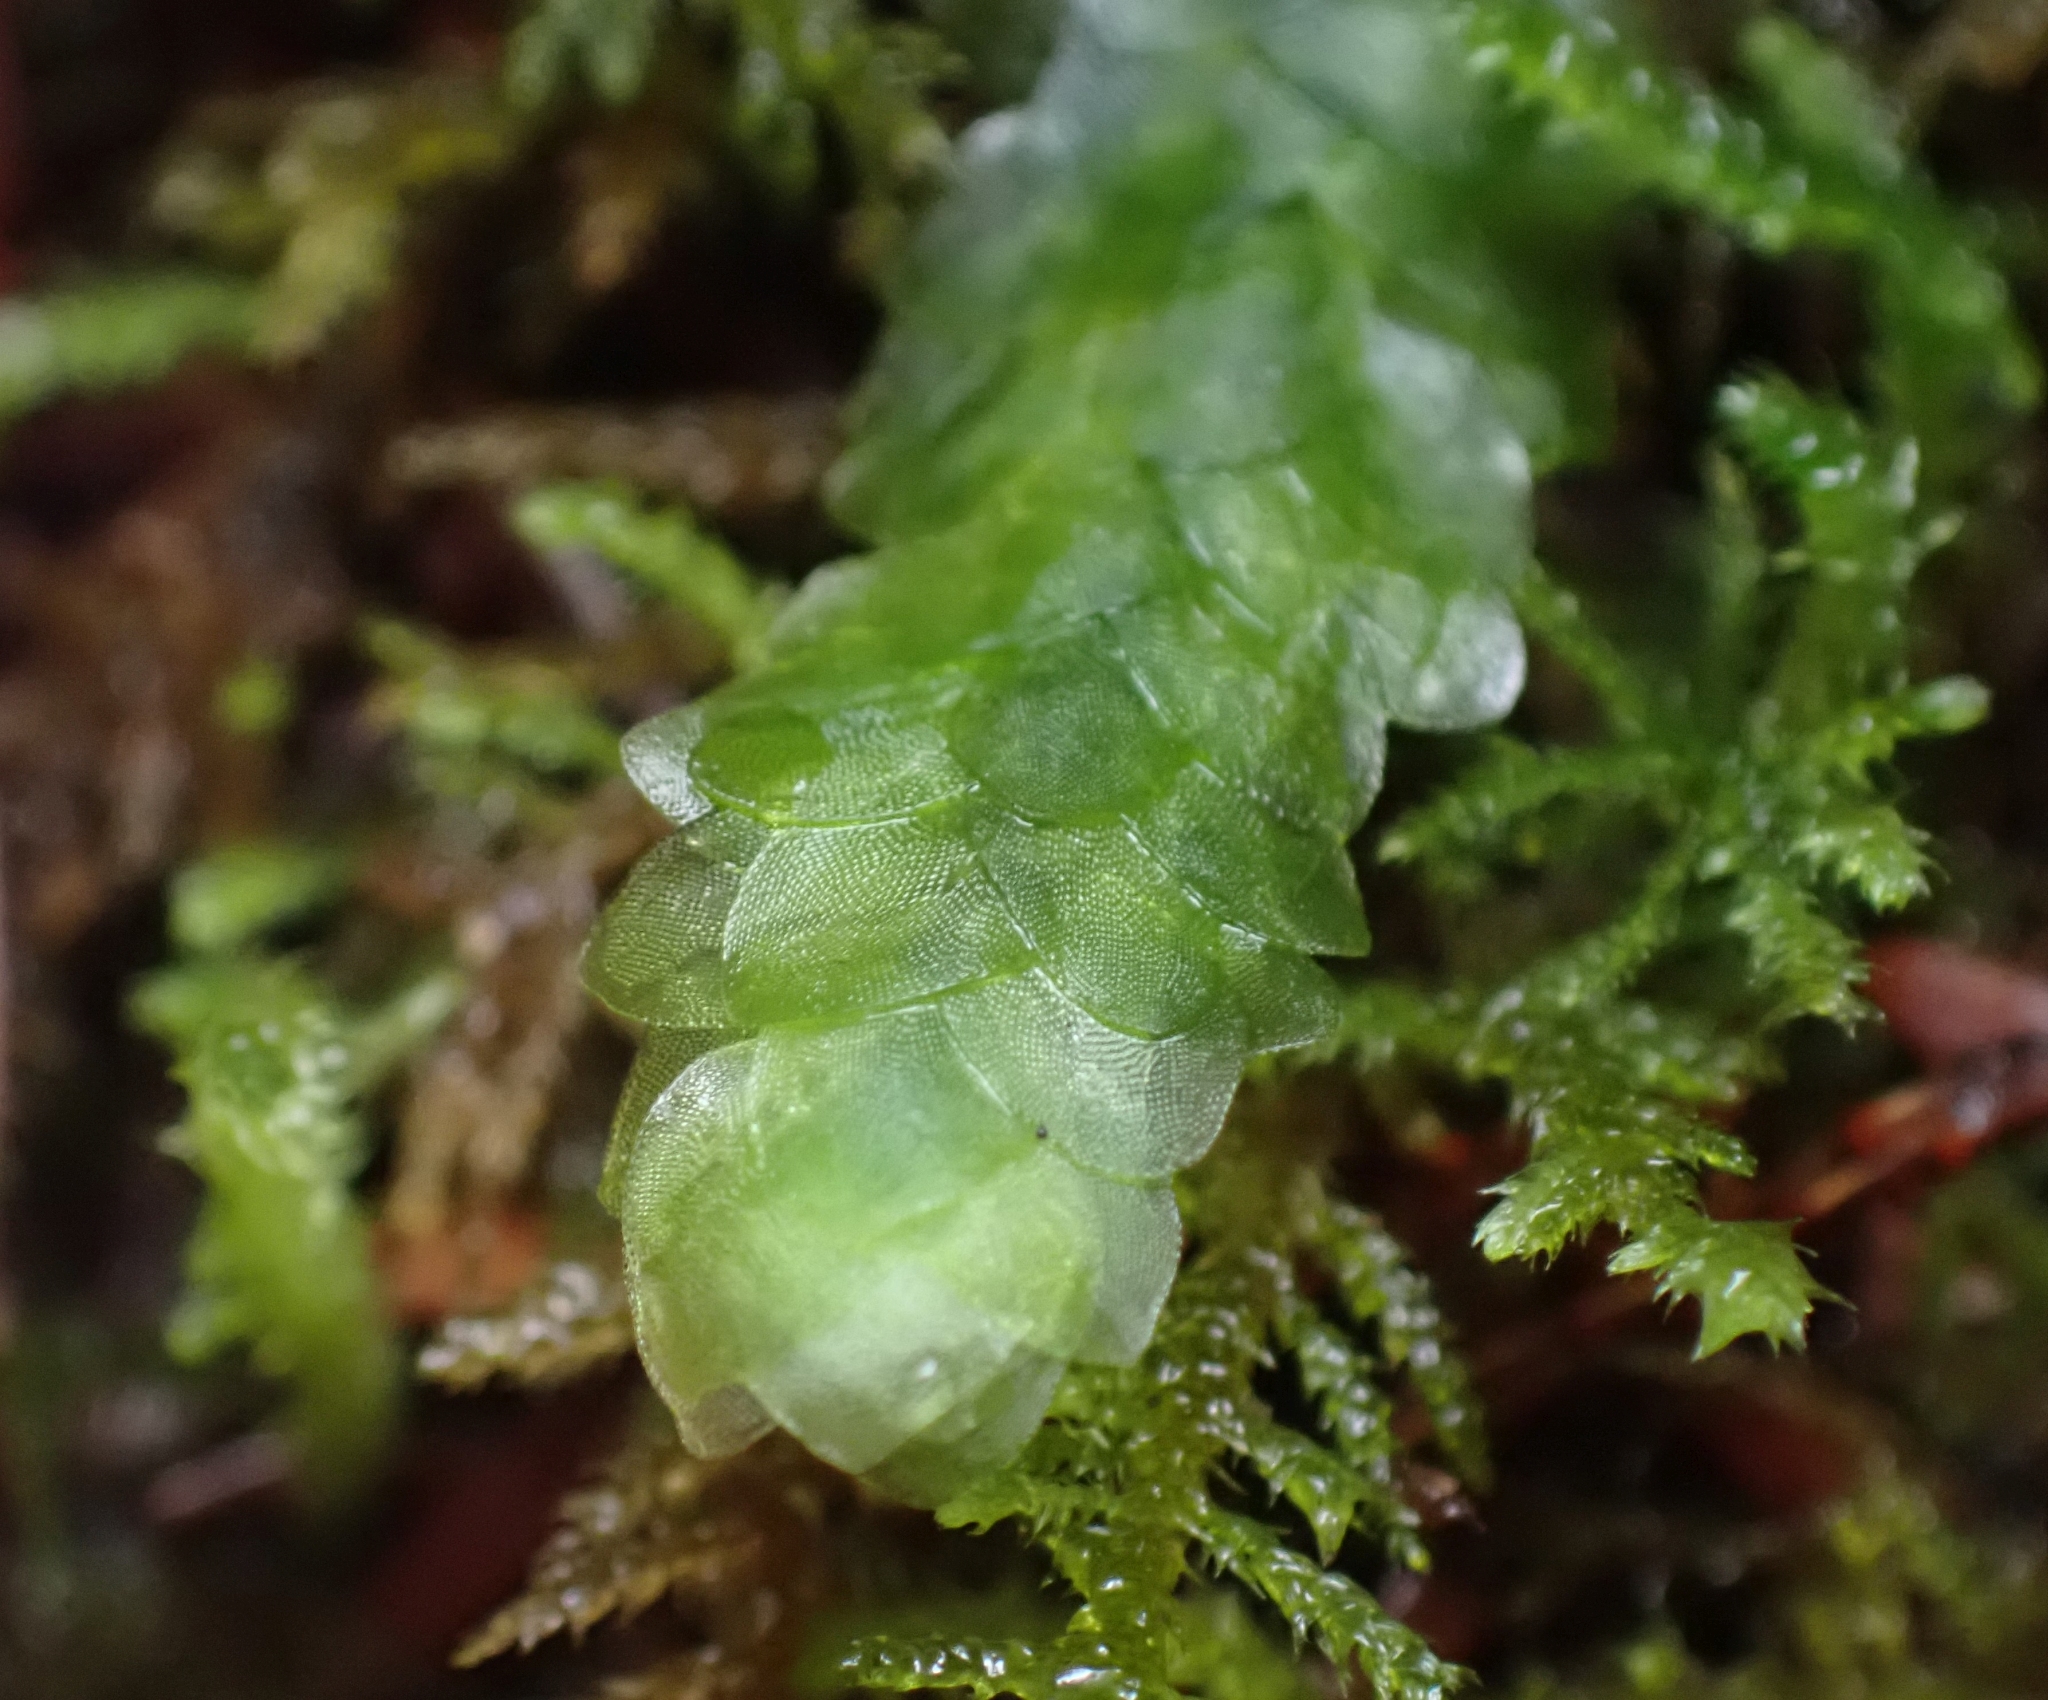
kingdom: Plantae
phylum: Bryophyta
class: Bryopsida
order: Hookeriales
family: Hookeriaceae
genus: Hookeria
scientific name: Hookeria lucens
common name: Shining hookeria
